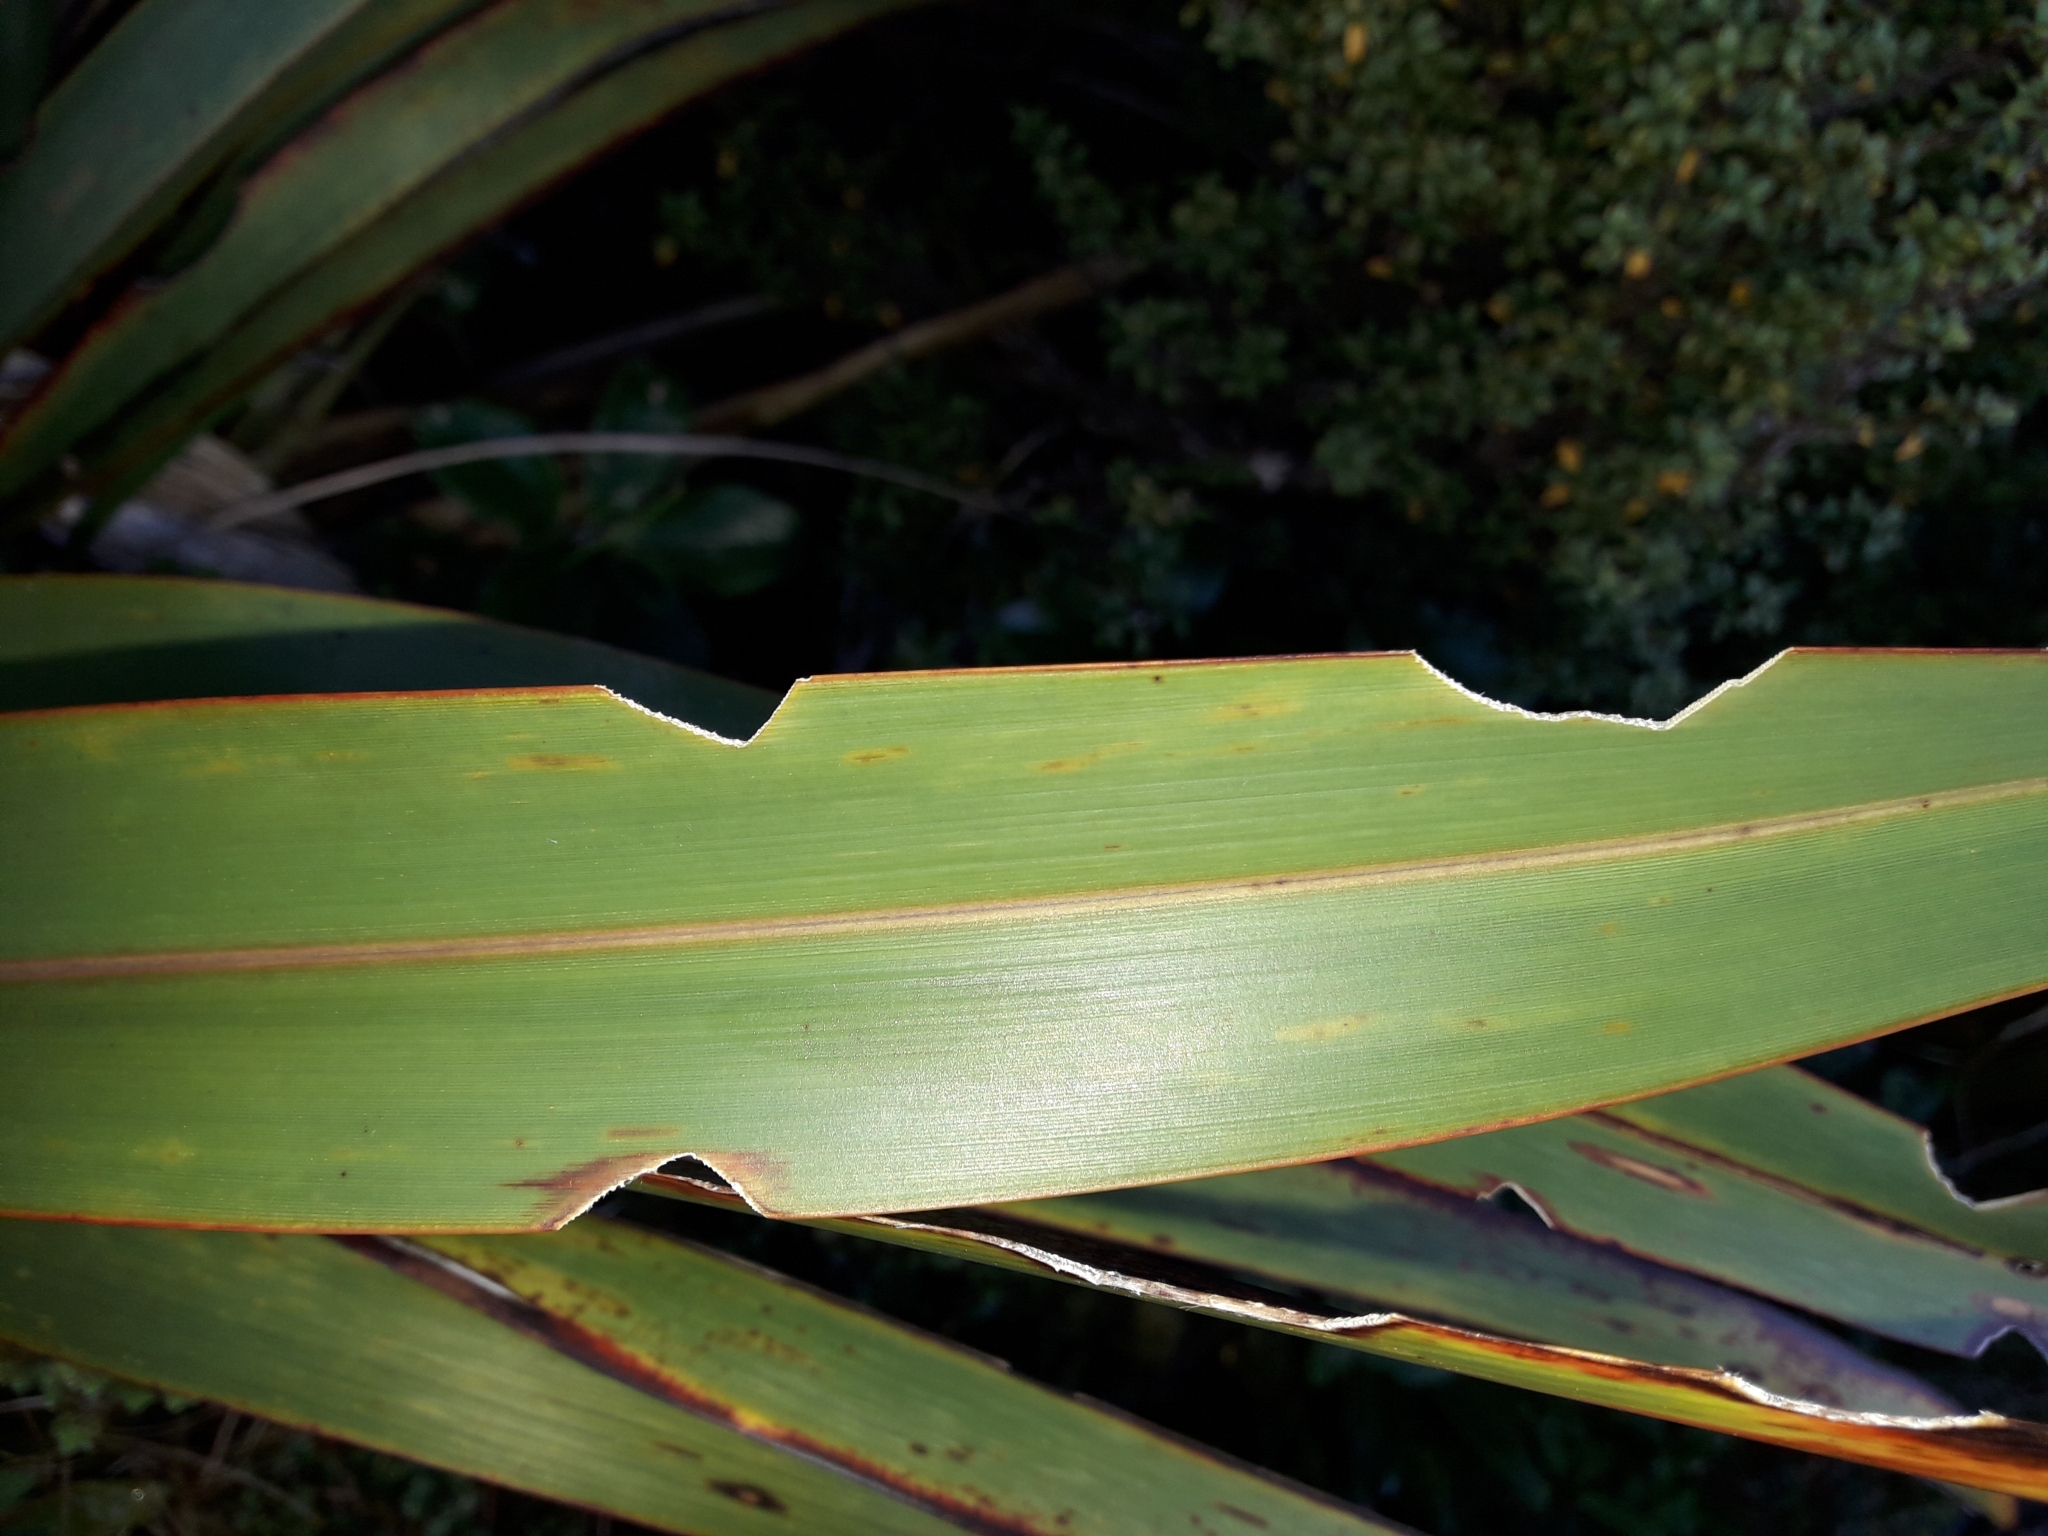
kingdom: Animalia
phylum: Arthropoda
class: Insecta
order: Lepidoptera
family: Noctuidae
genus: Ichneutica
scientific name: Ichneutica
